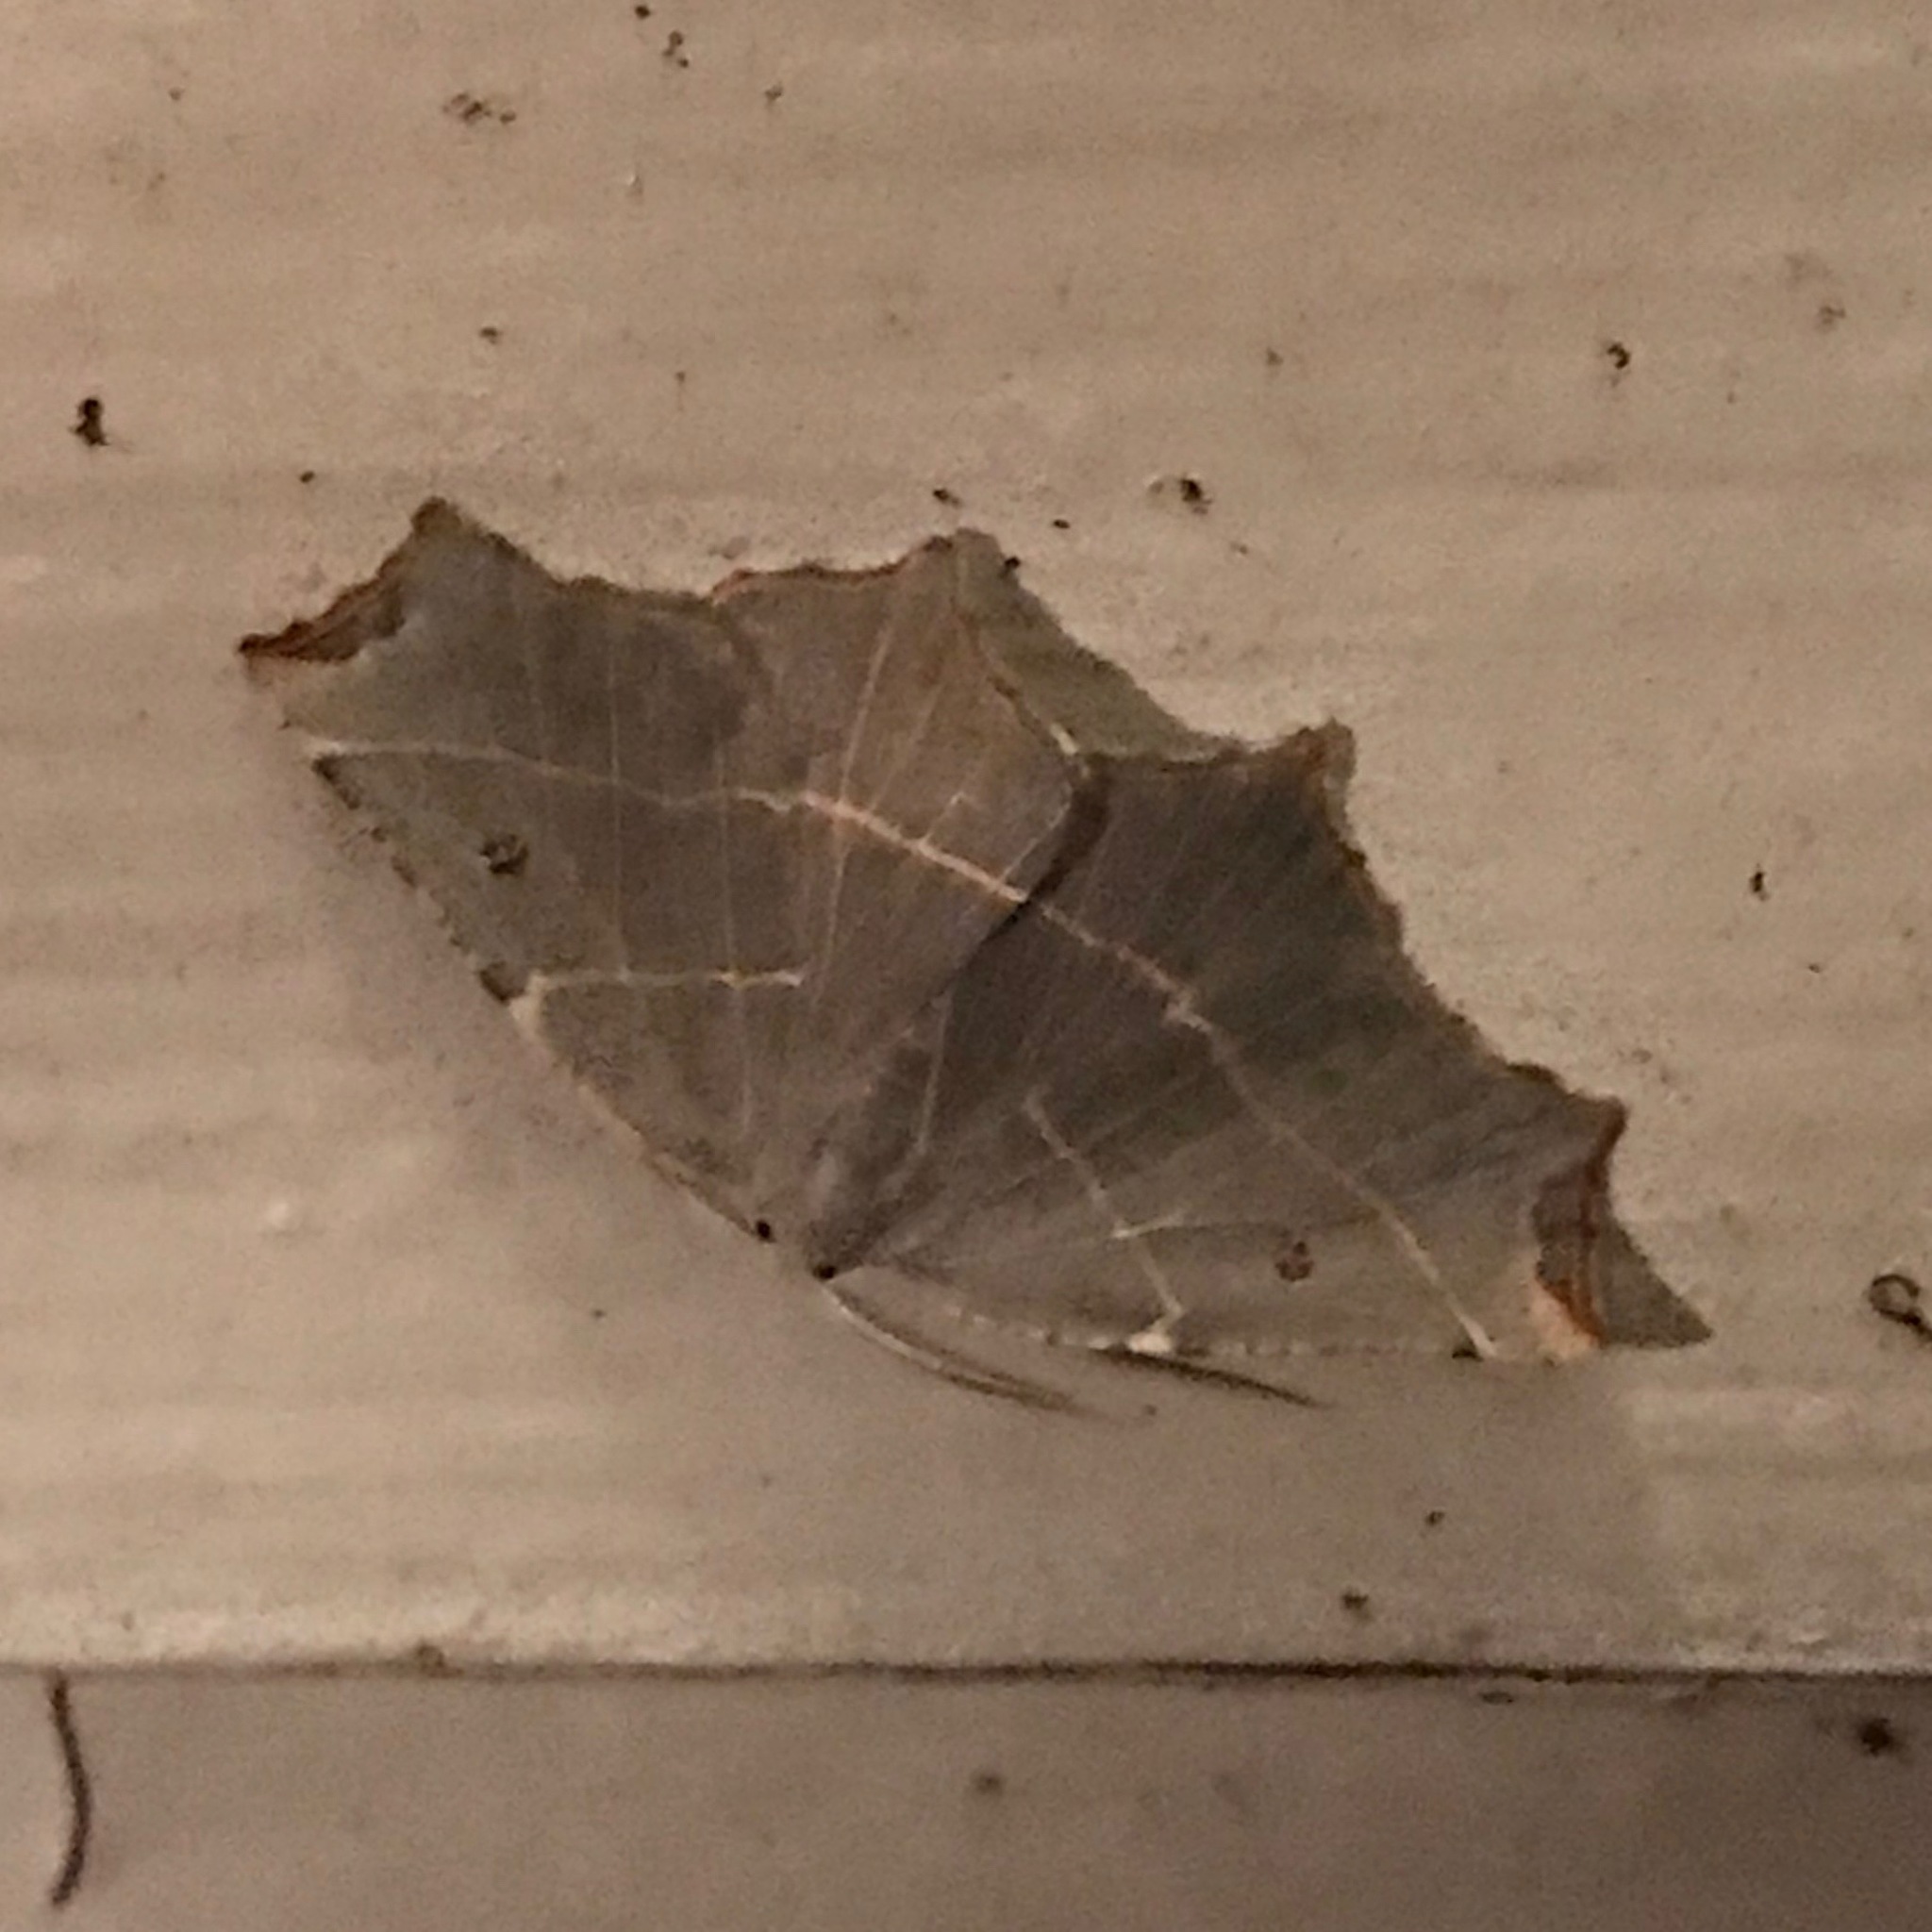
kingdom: Animalia
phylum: Arthropoda
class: Insecta
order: Lepidoptera
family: Geometridae
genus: Metanema
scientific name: Metanema inatomaria
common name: Pale metanema
